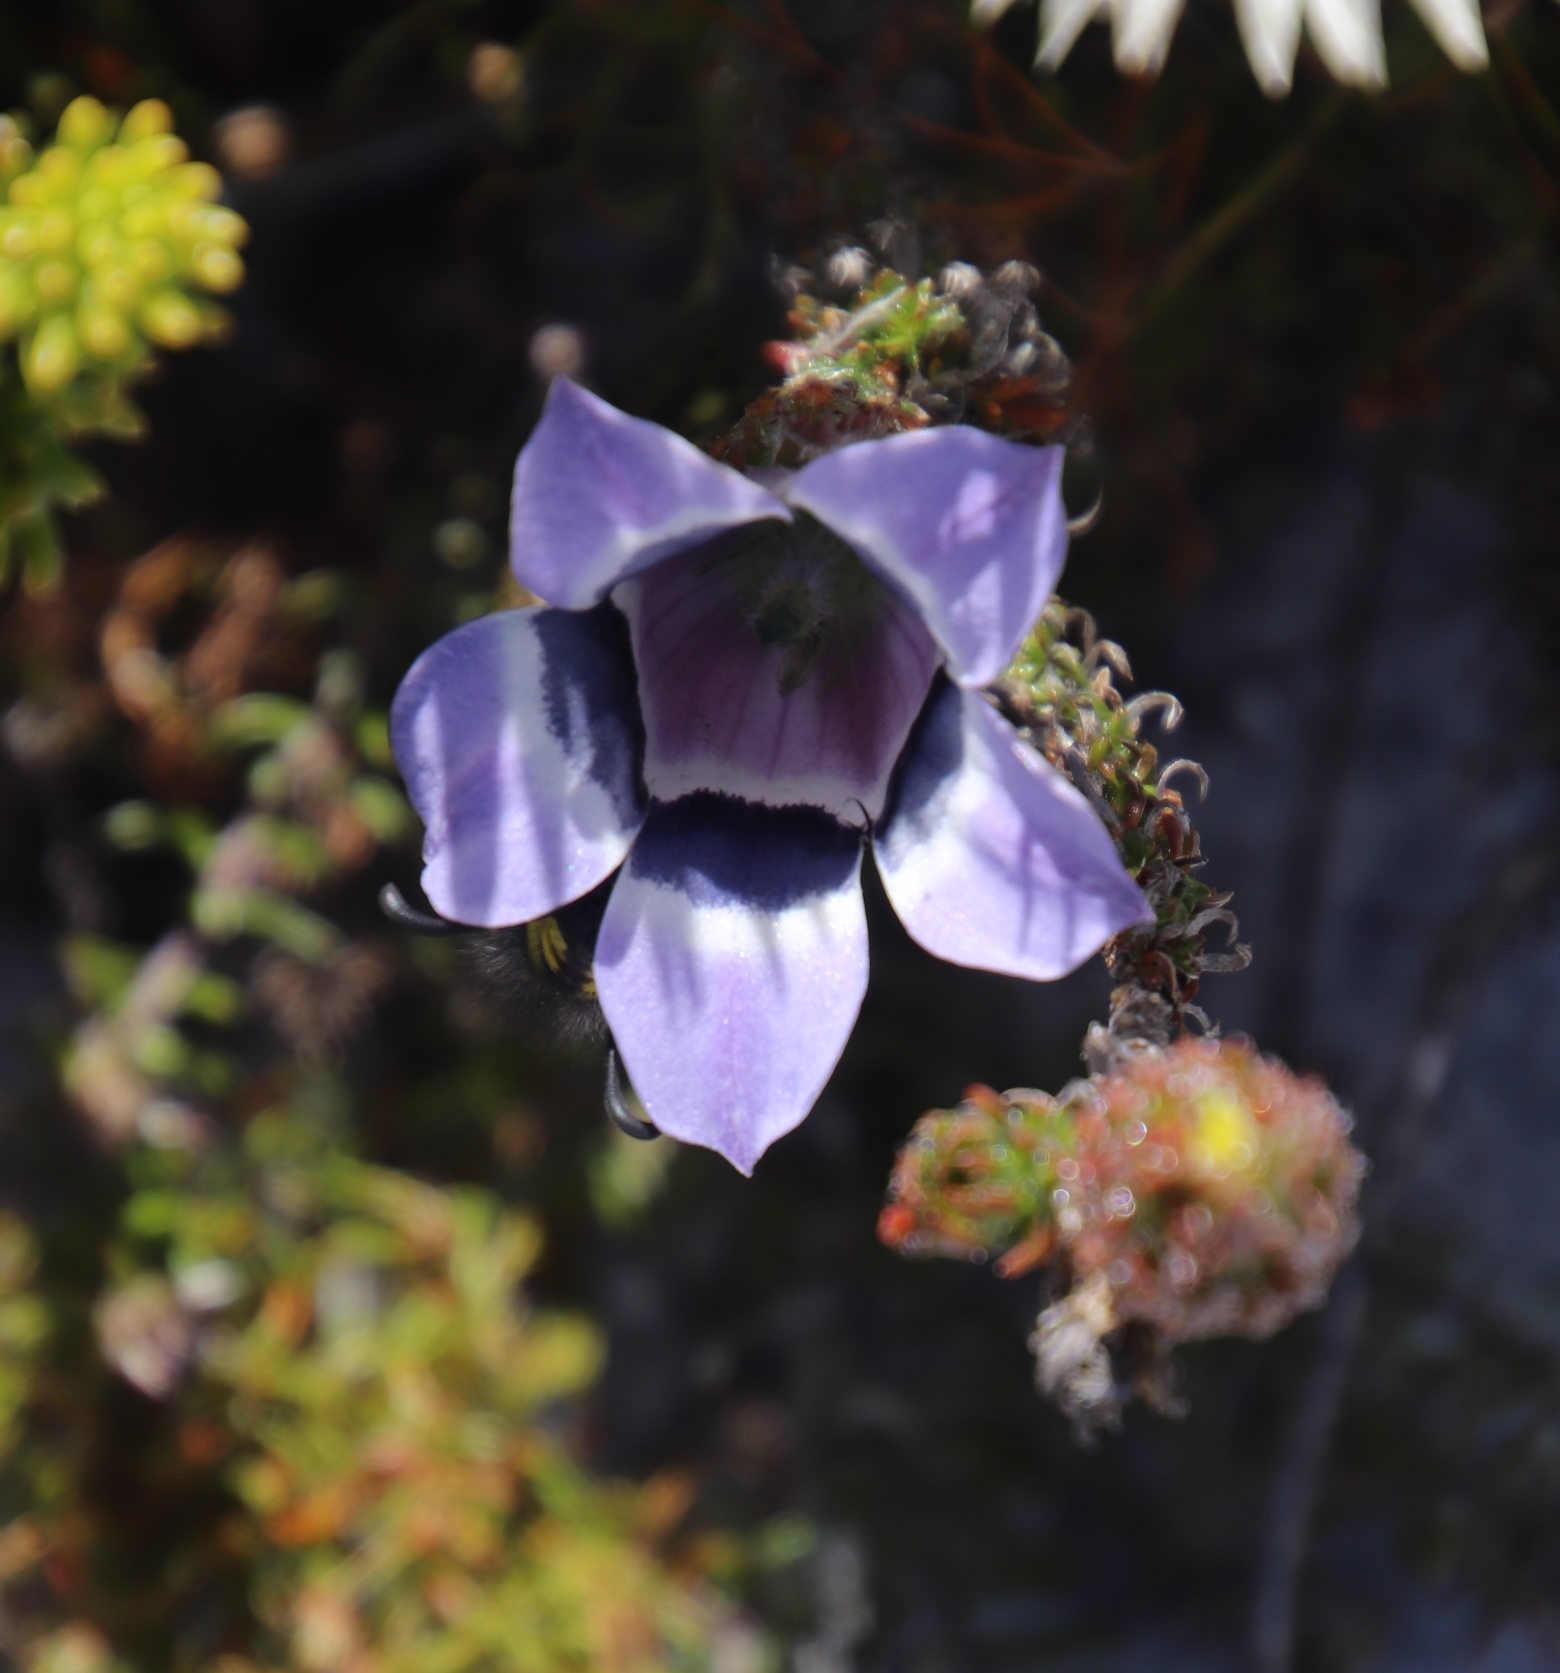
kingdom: Plantae
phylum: Tracheophyta
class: Magnoliopsida
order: Asterales
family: Campanulaceae
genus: Roella
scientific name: Roella ciliata
